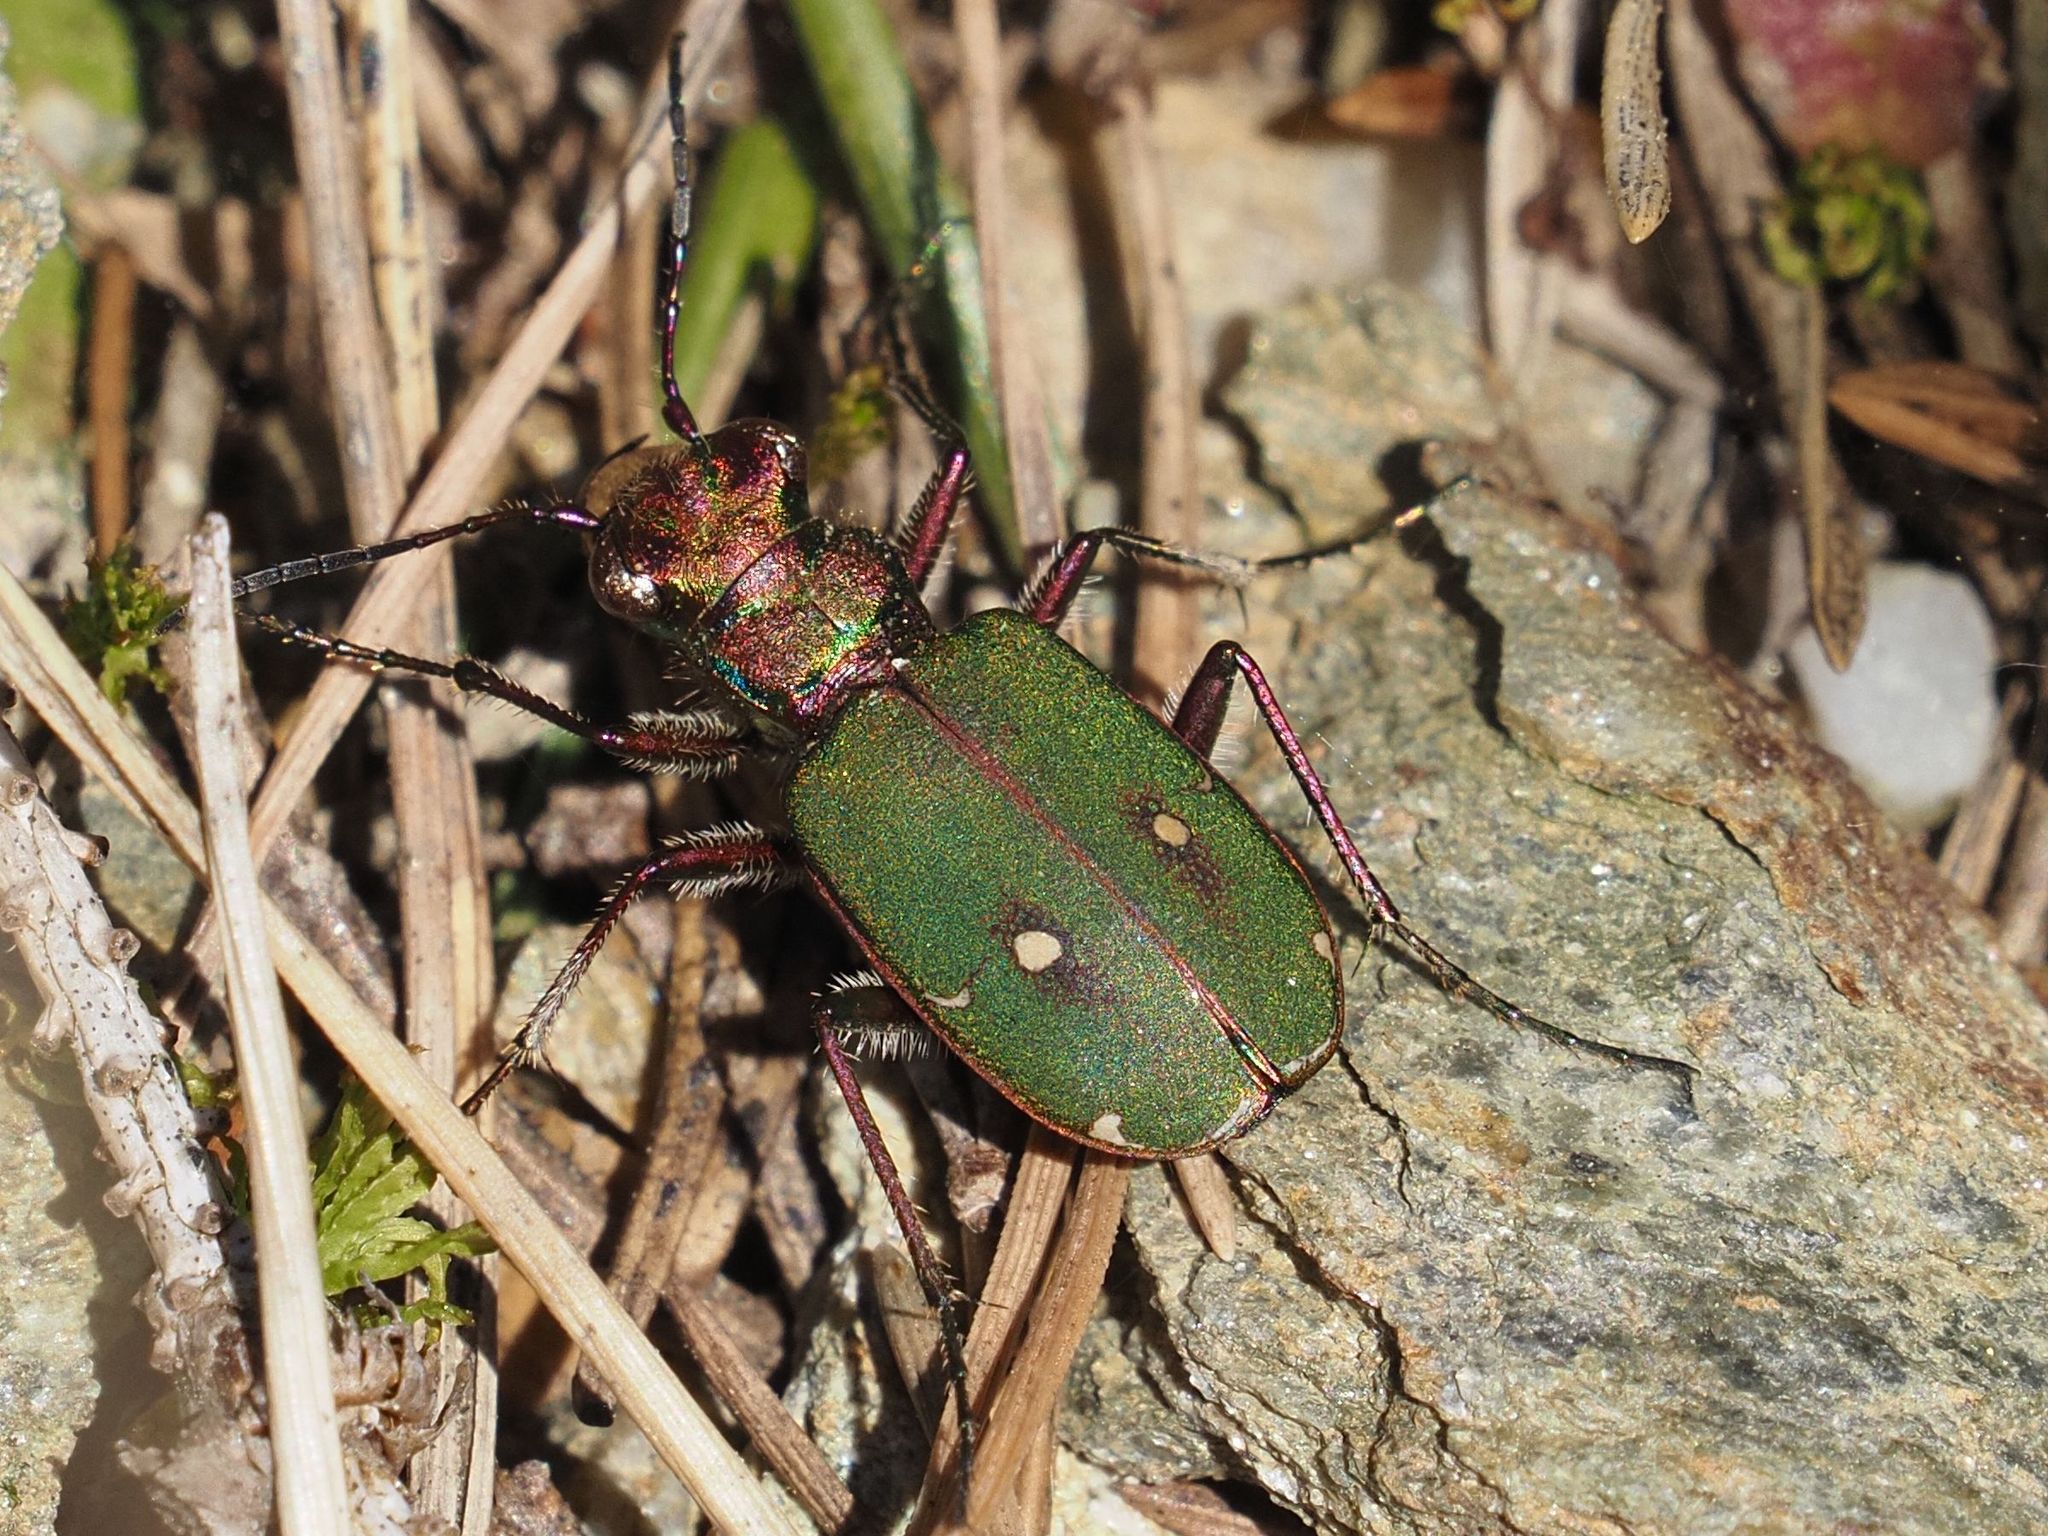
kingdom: Animalia
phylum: Arthropoda
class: Insecta
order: Coleoptera
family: Carabidae
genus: Cicindela
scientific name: Cicindela campestris
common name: Common tiger beetle
